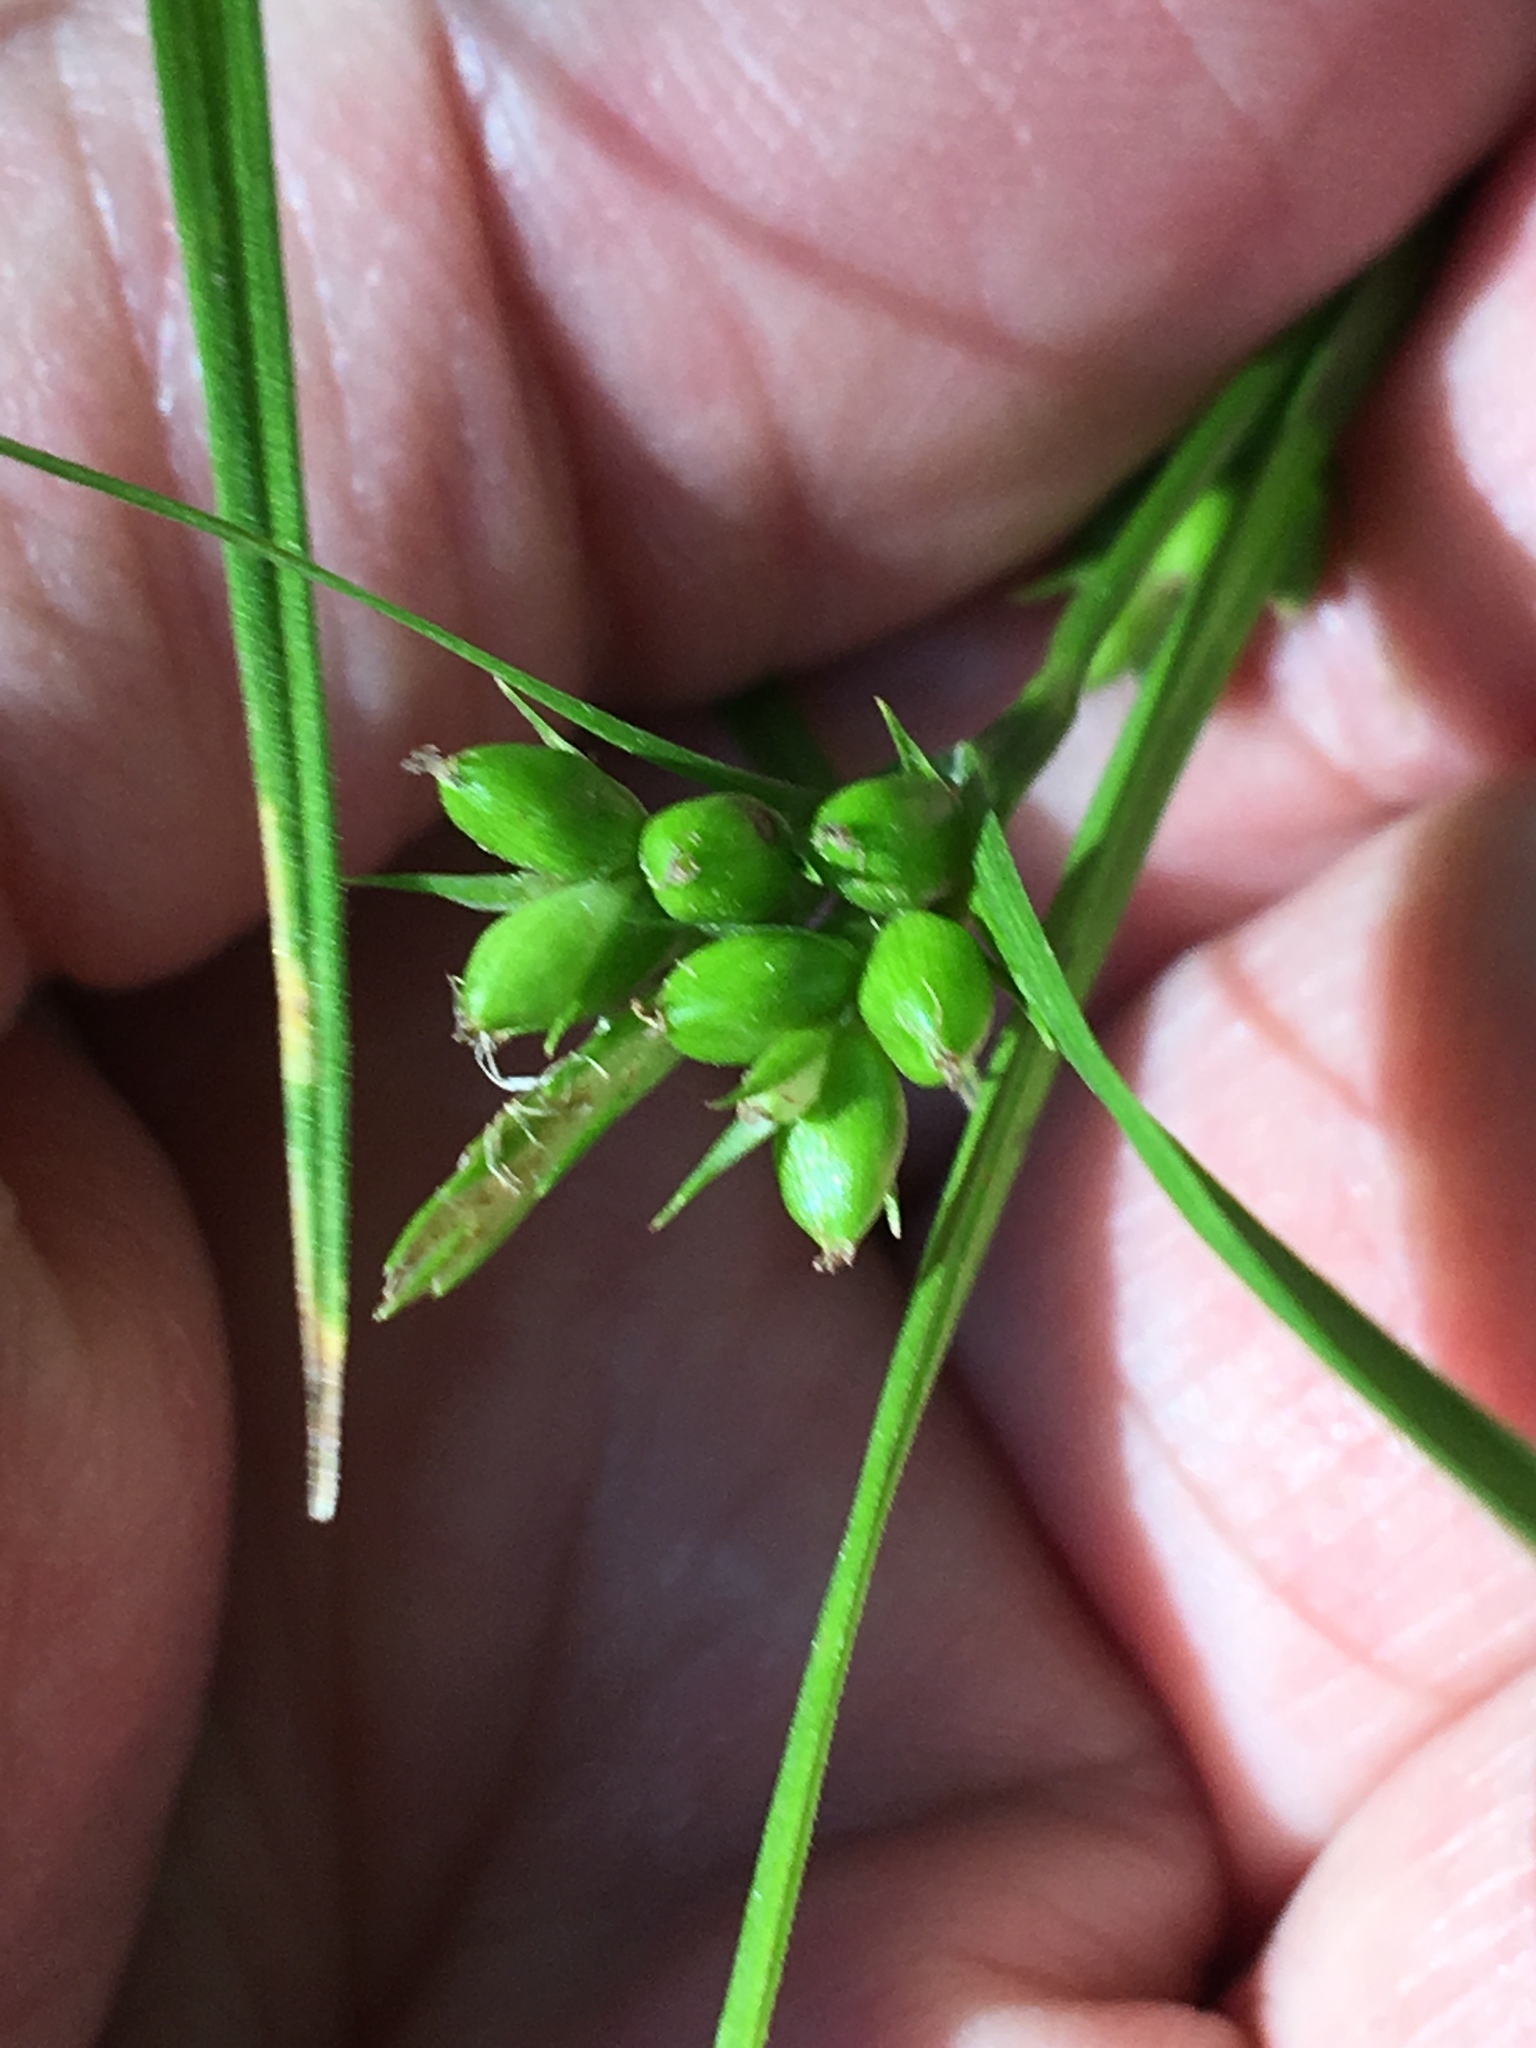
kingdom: Plantae
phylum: Tracheophyta
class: Liliopsida
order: Poales
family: Cyperaceae
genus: Carex
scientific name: Carex blanda
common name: Bland sedge
